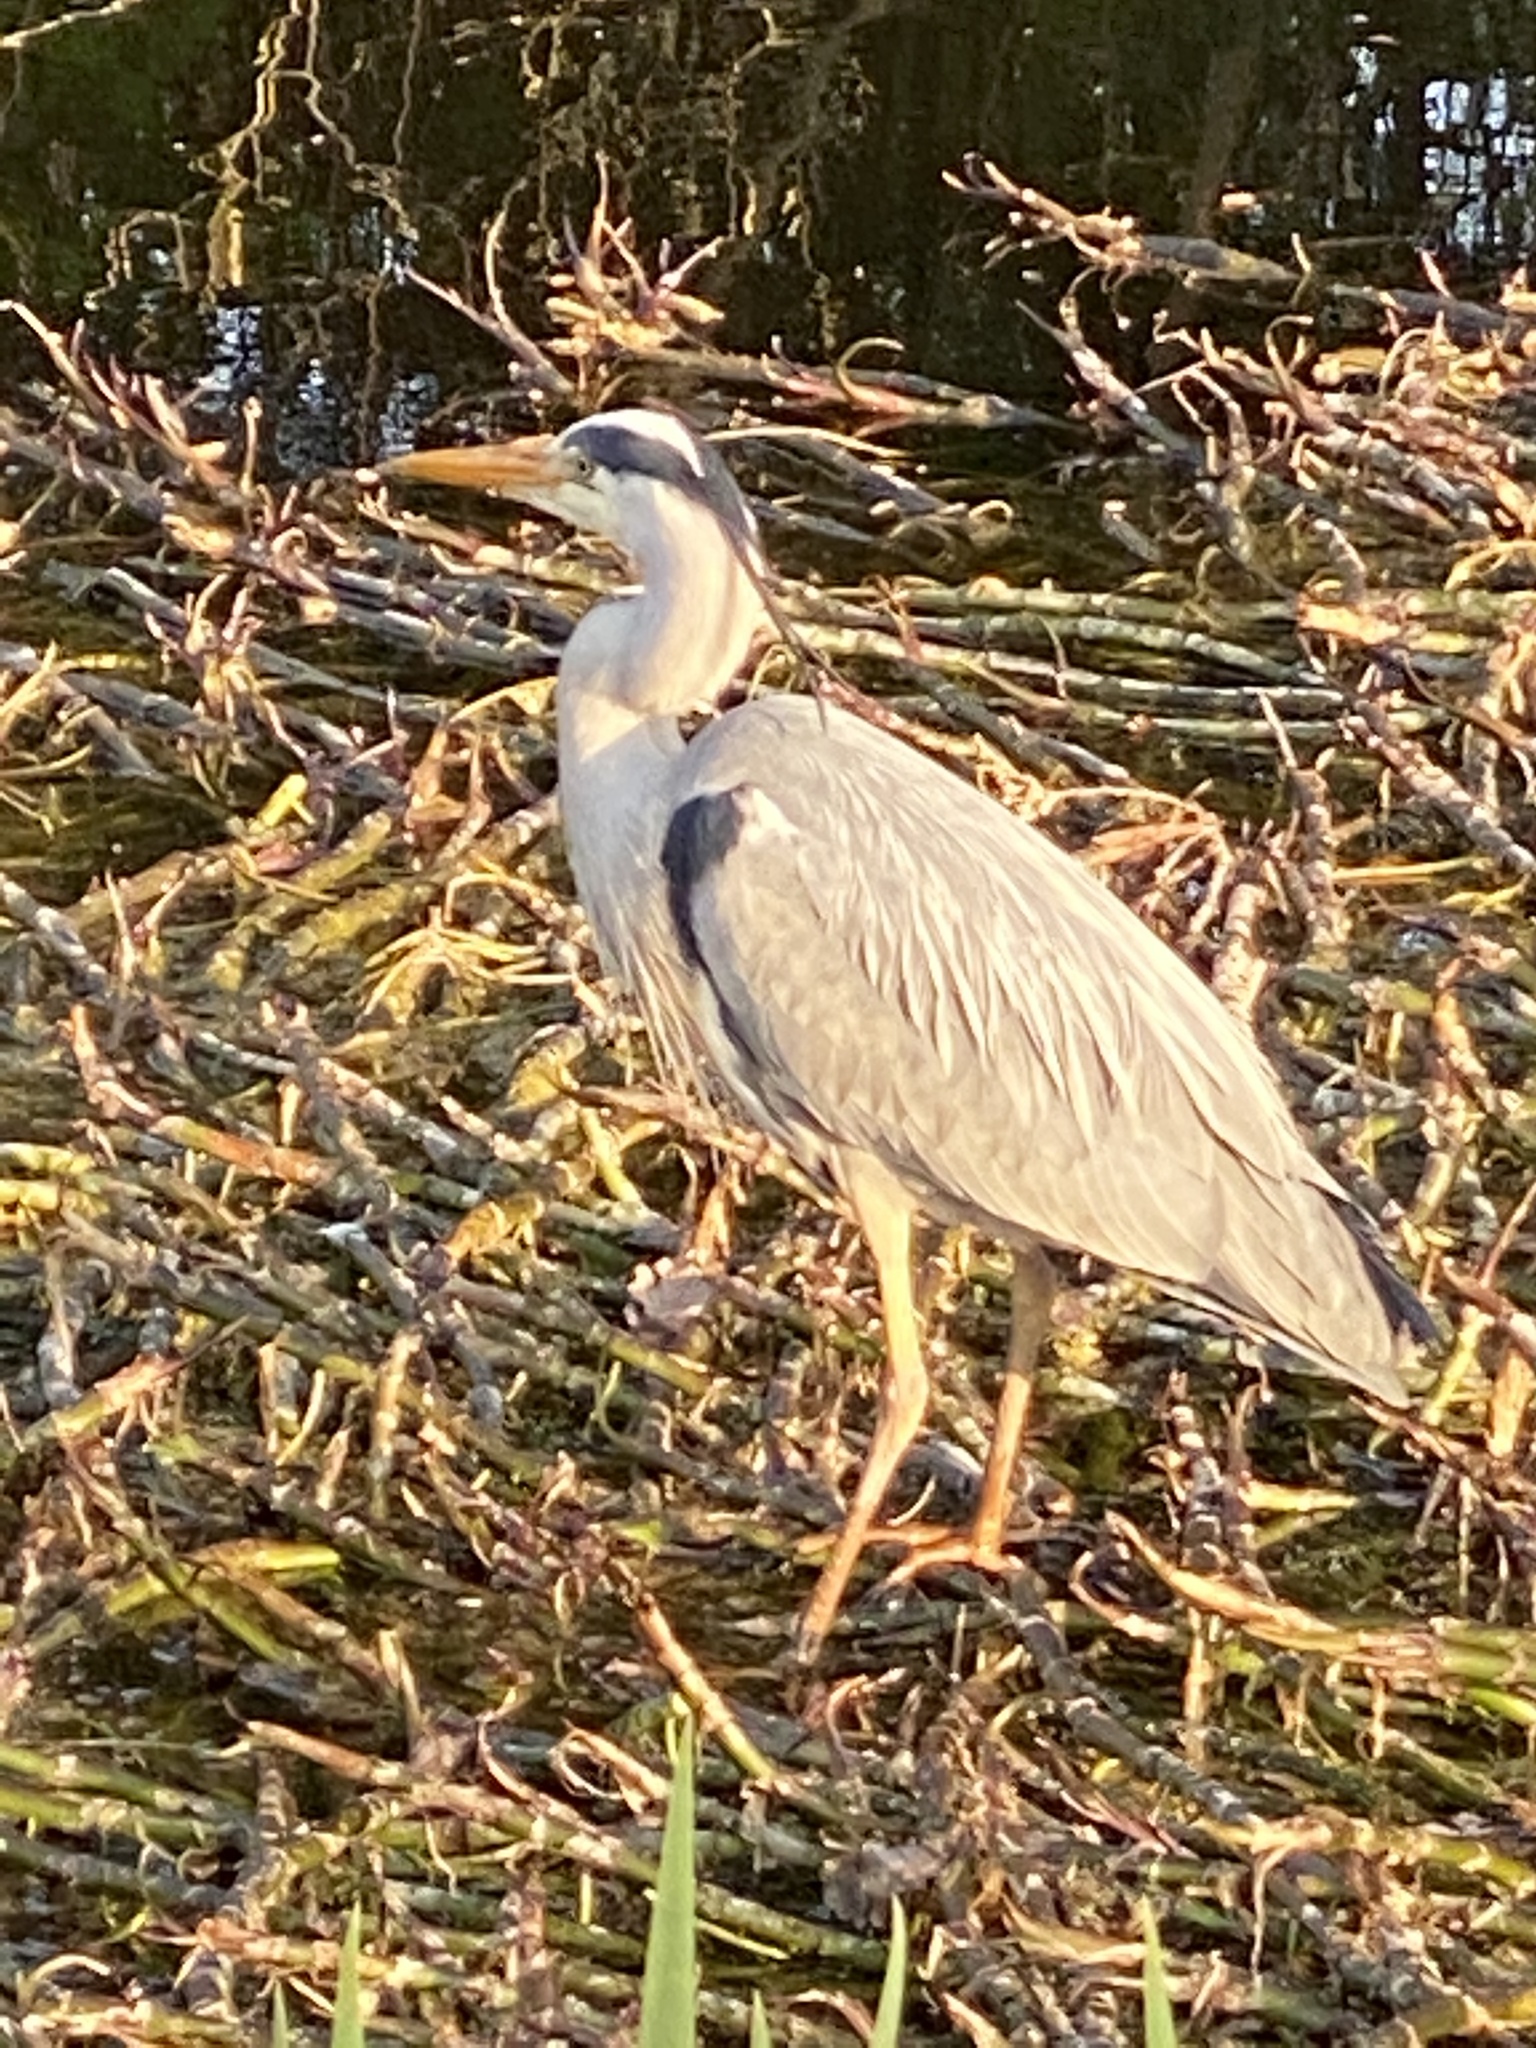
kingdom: Animalia
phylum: Chordata
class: Aves
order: Pelecaniformes
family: Ardeidae
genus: Ardea
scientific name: Ardea cinerea
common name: Grey heron
